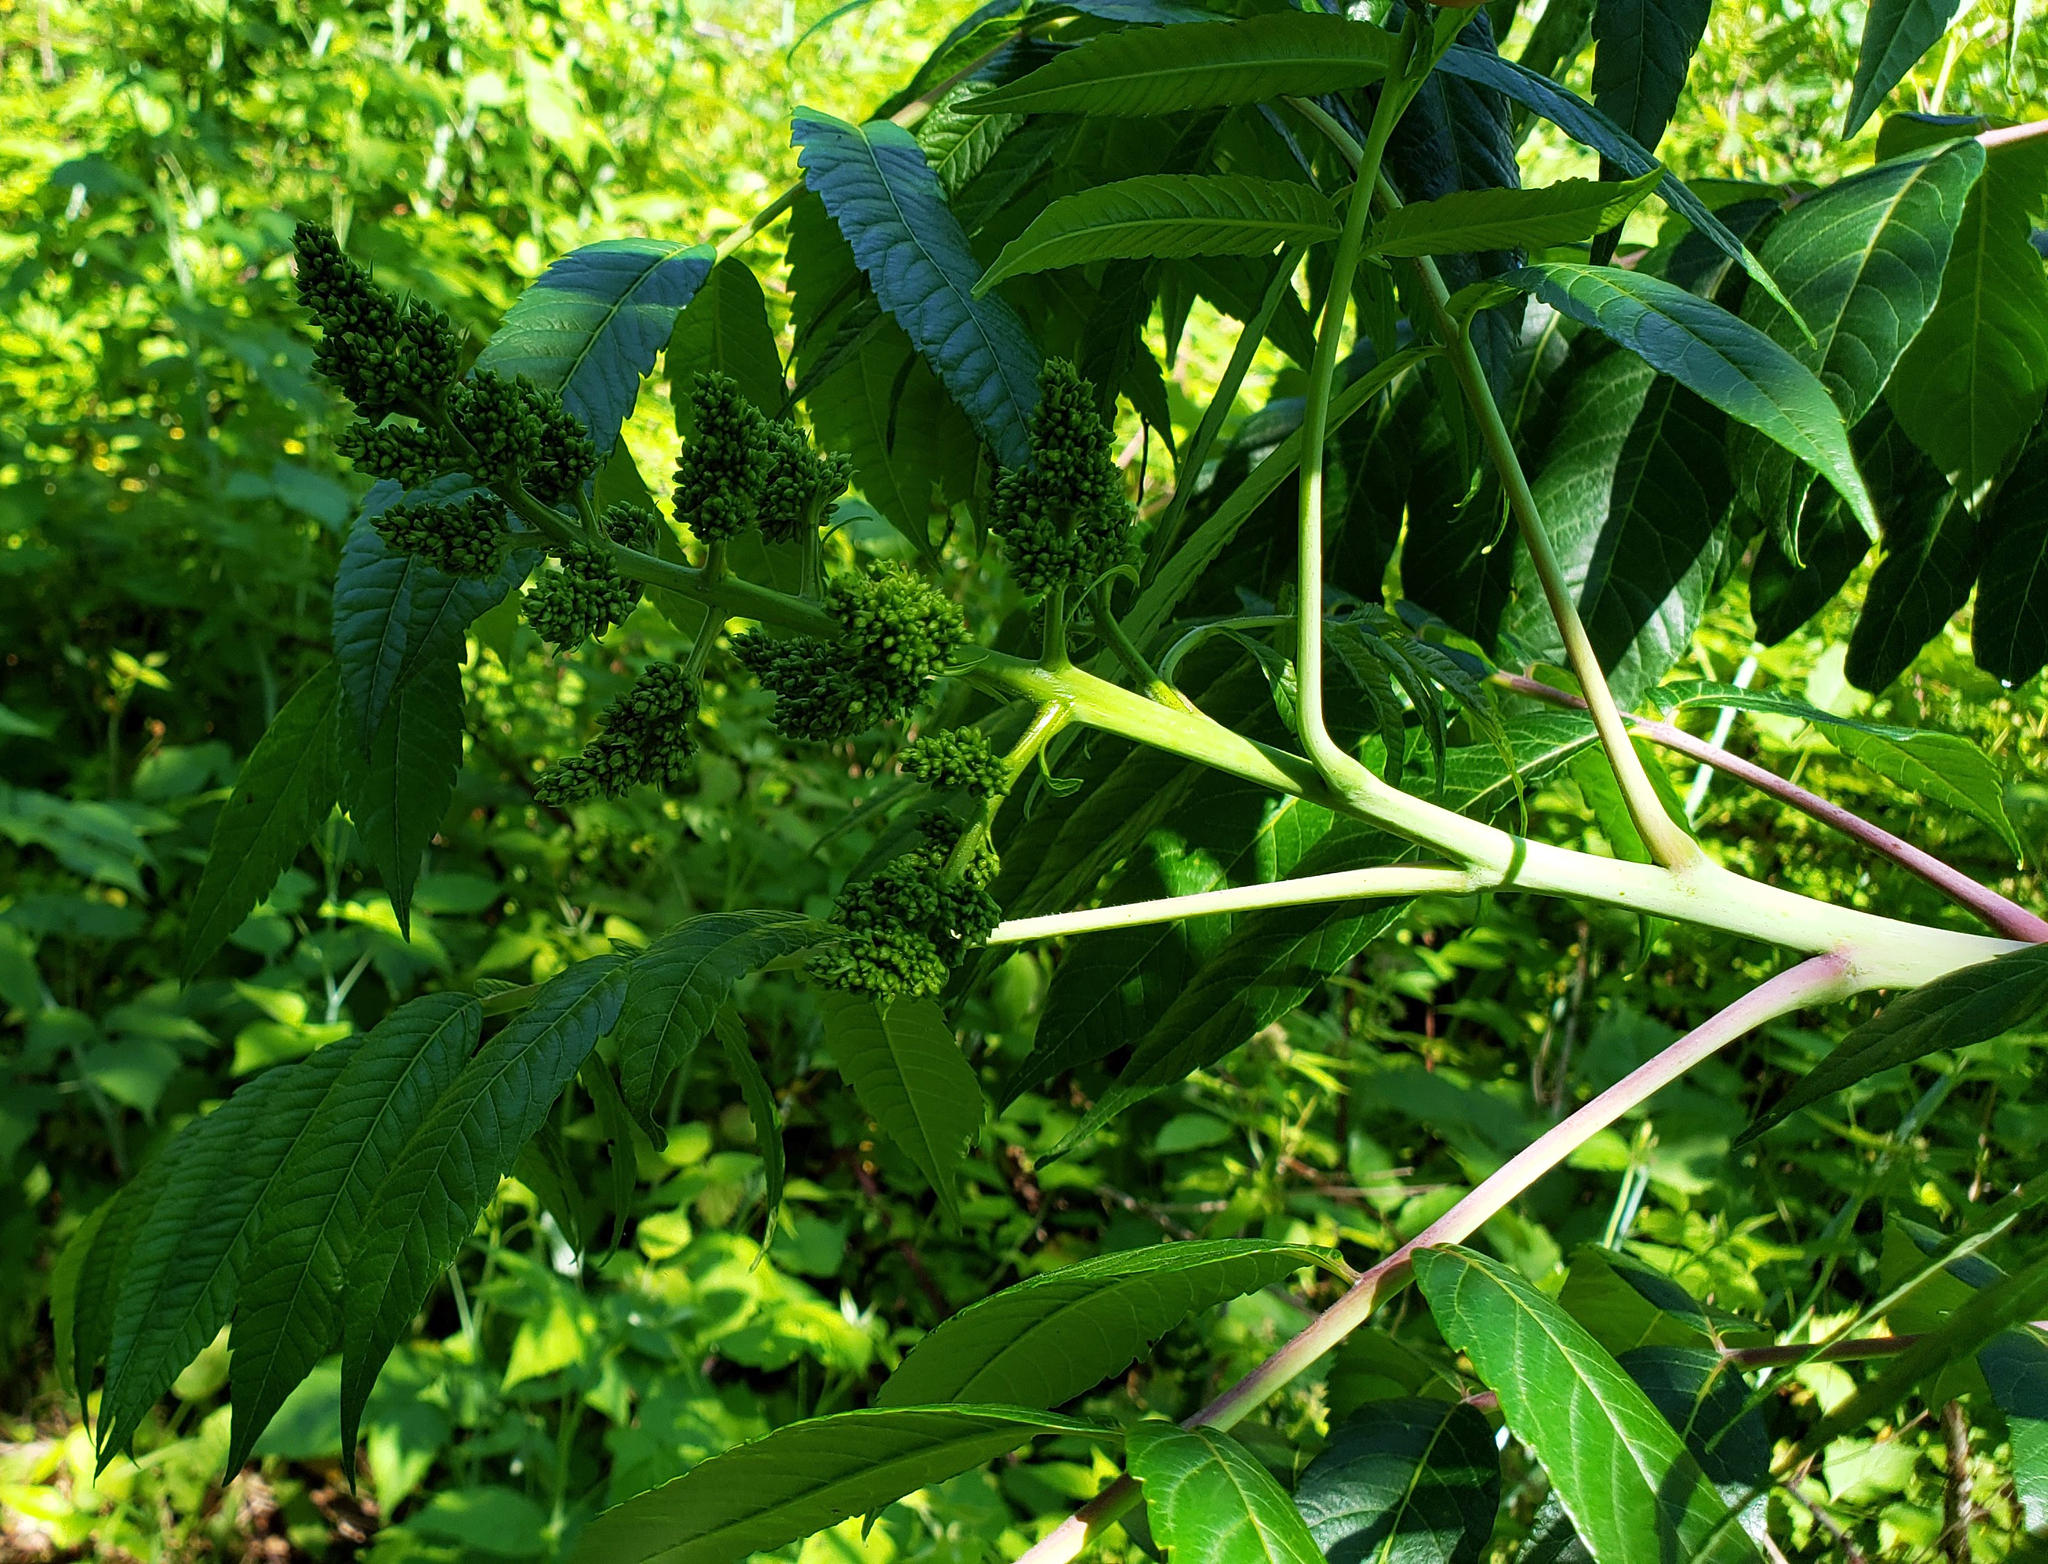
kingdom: Plantae
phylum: Tracheophyta
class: Magnoliopsida
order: Sapindales
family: Anacardiaceae
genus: Rhus
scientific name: Rhus glabra
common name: Scarlet sumac
